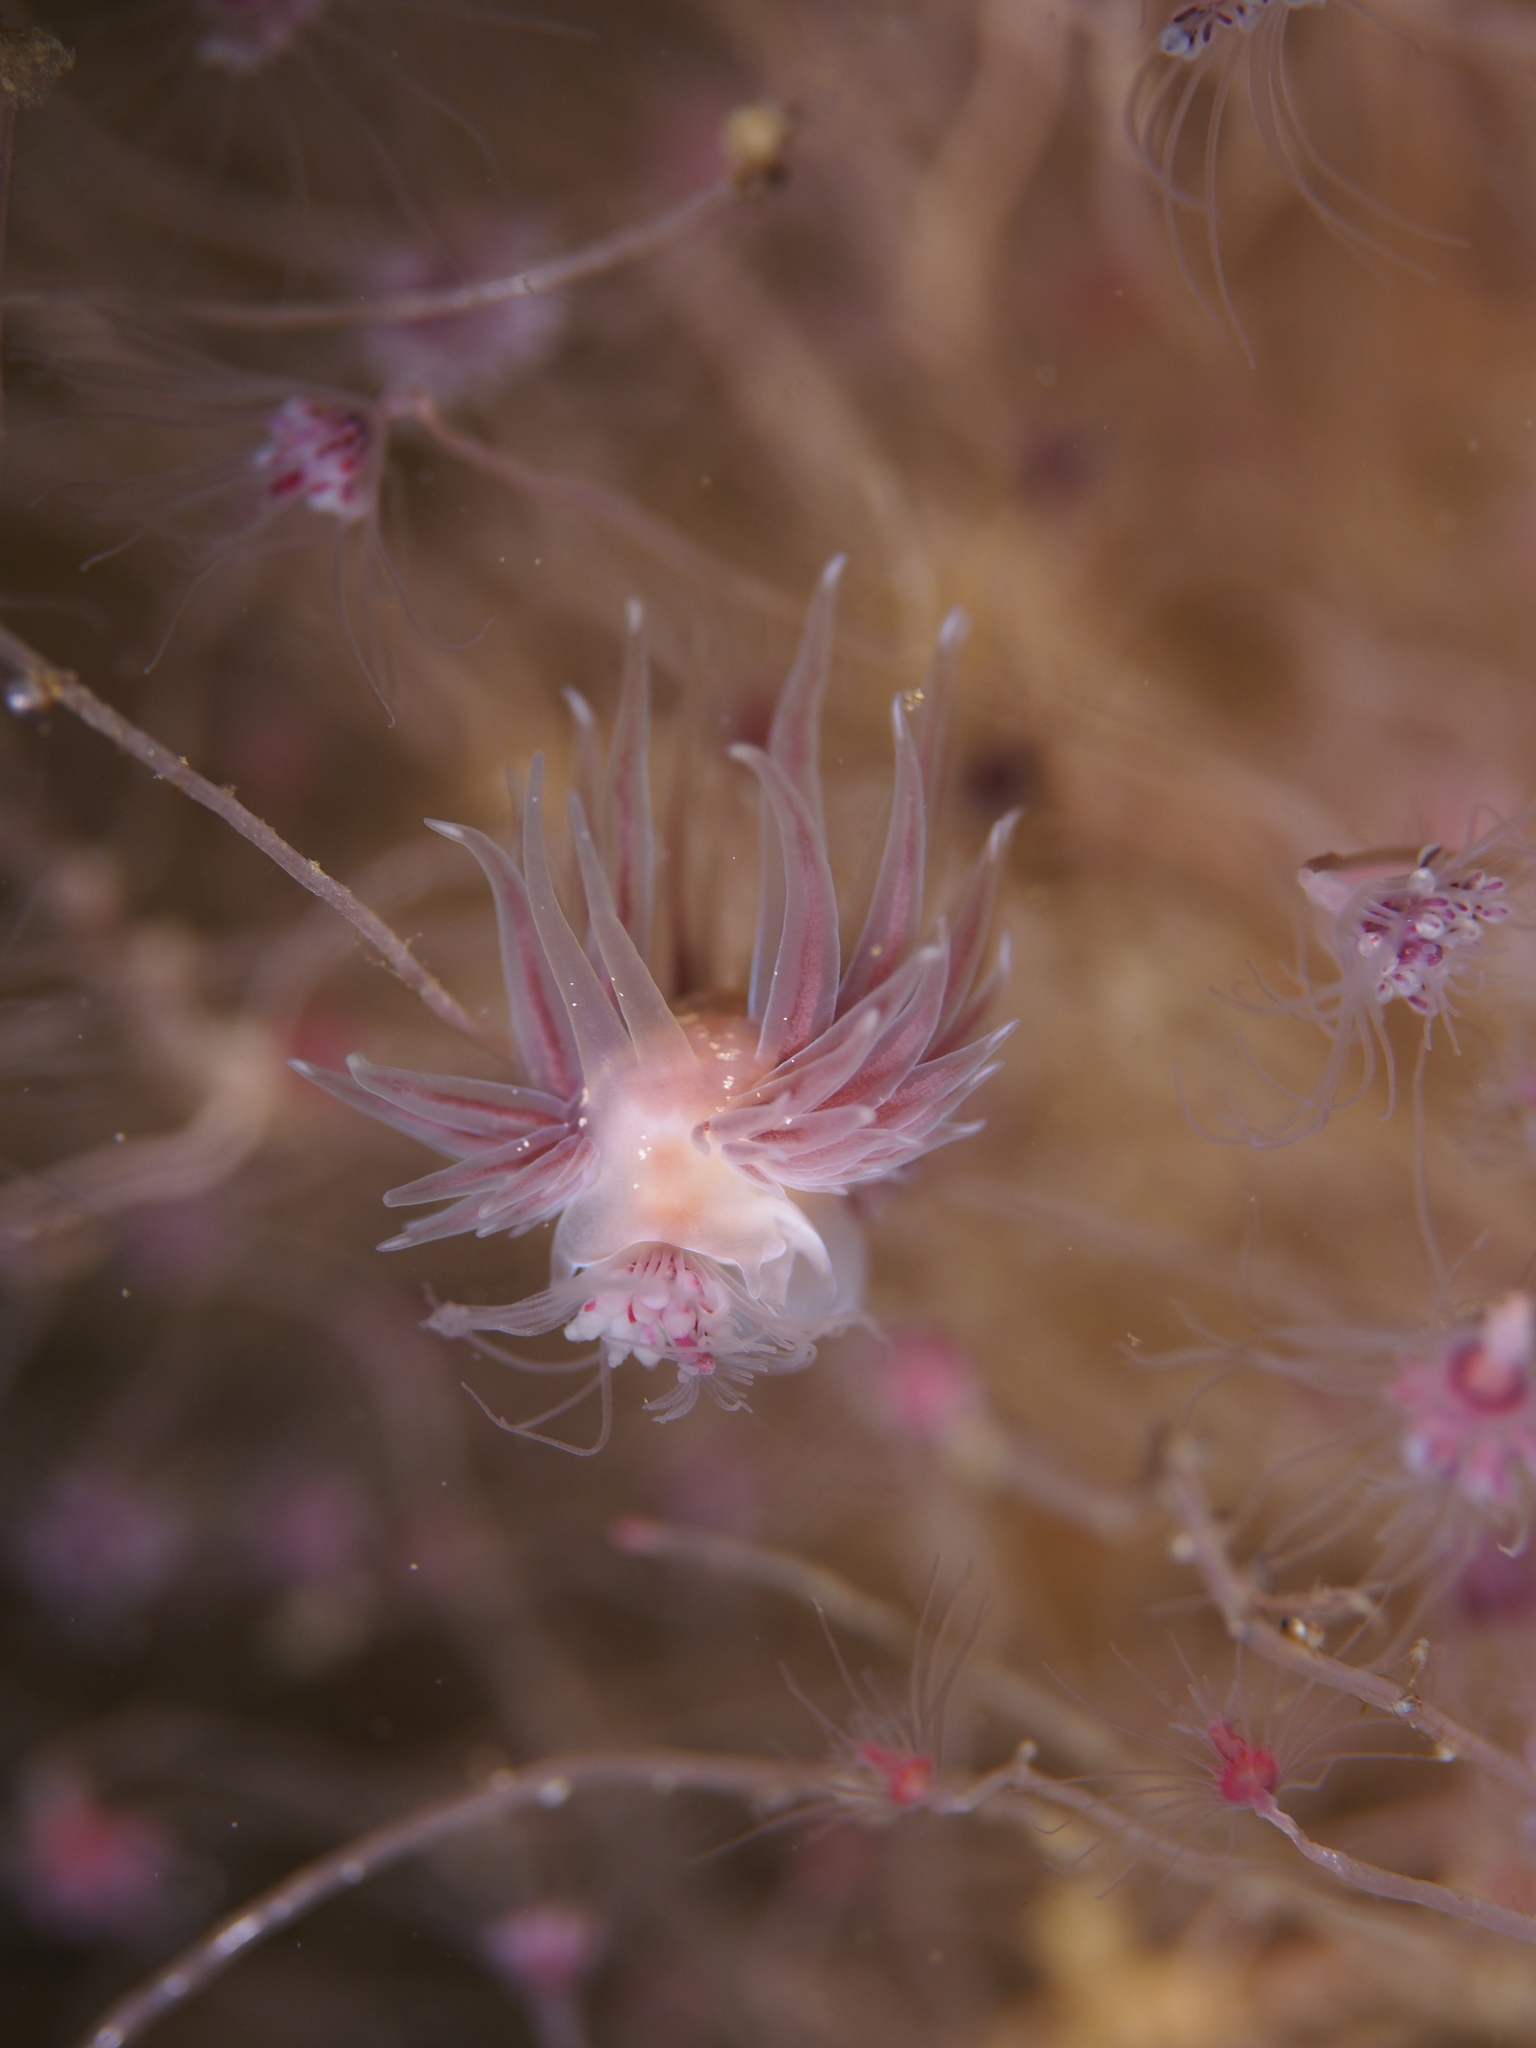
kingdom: Animalia
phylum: Mollusca
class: Gastropoda
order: Nudibranchia
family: Cumanotidae
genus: Cumanotus
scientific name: Cumanotus beaumonti
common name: Polyp aeolis
